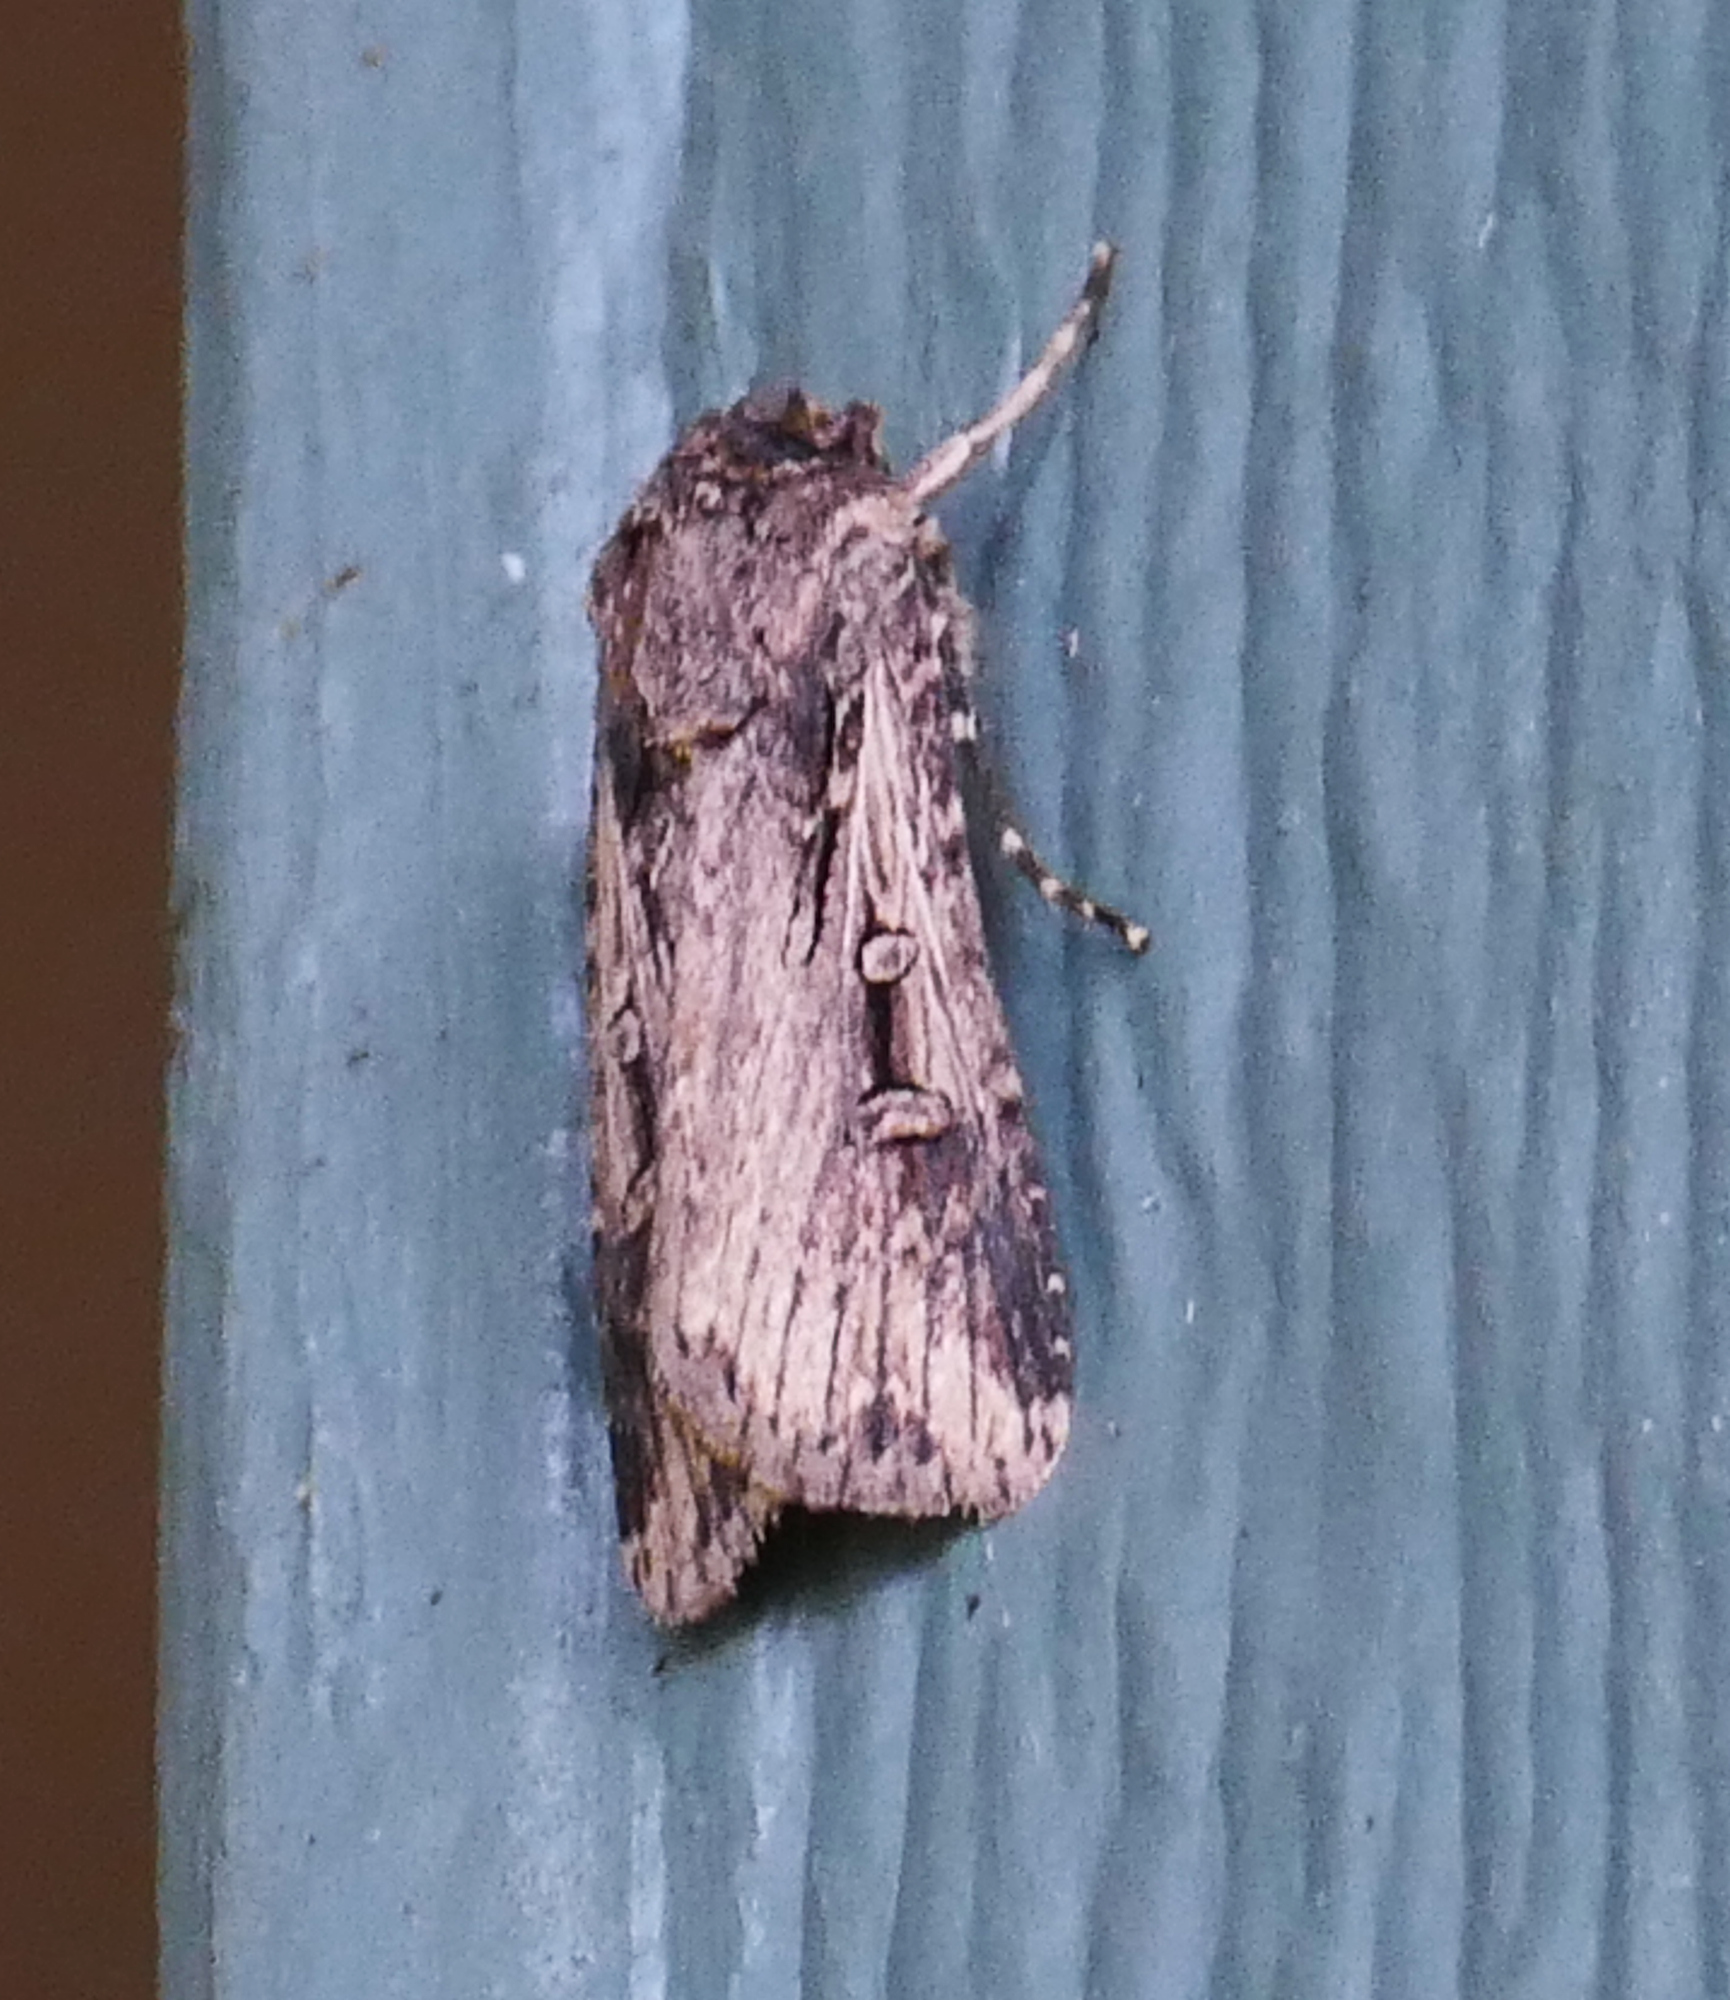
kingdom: Animalia
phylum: Arthropoda
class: Insecta
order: Lepidoptera
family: Noctuidae
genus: Feltia
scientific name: Feltia subterranea
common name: Granulate cutworm
